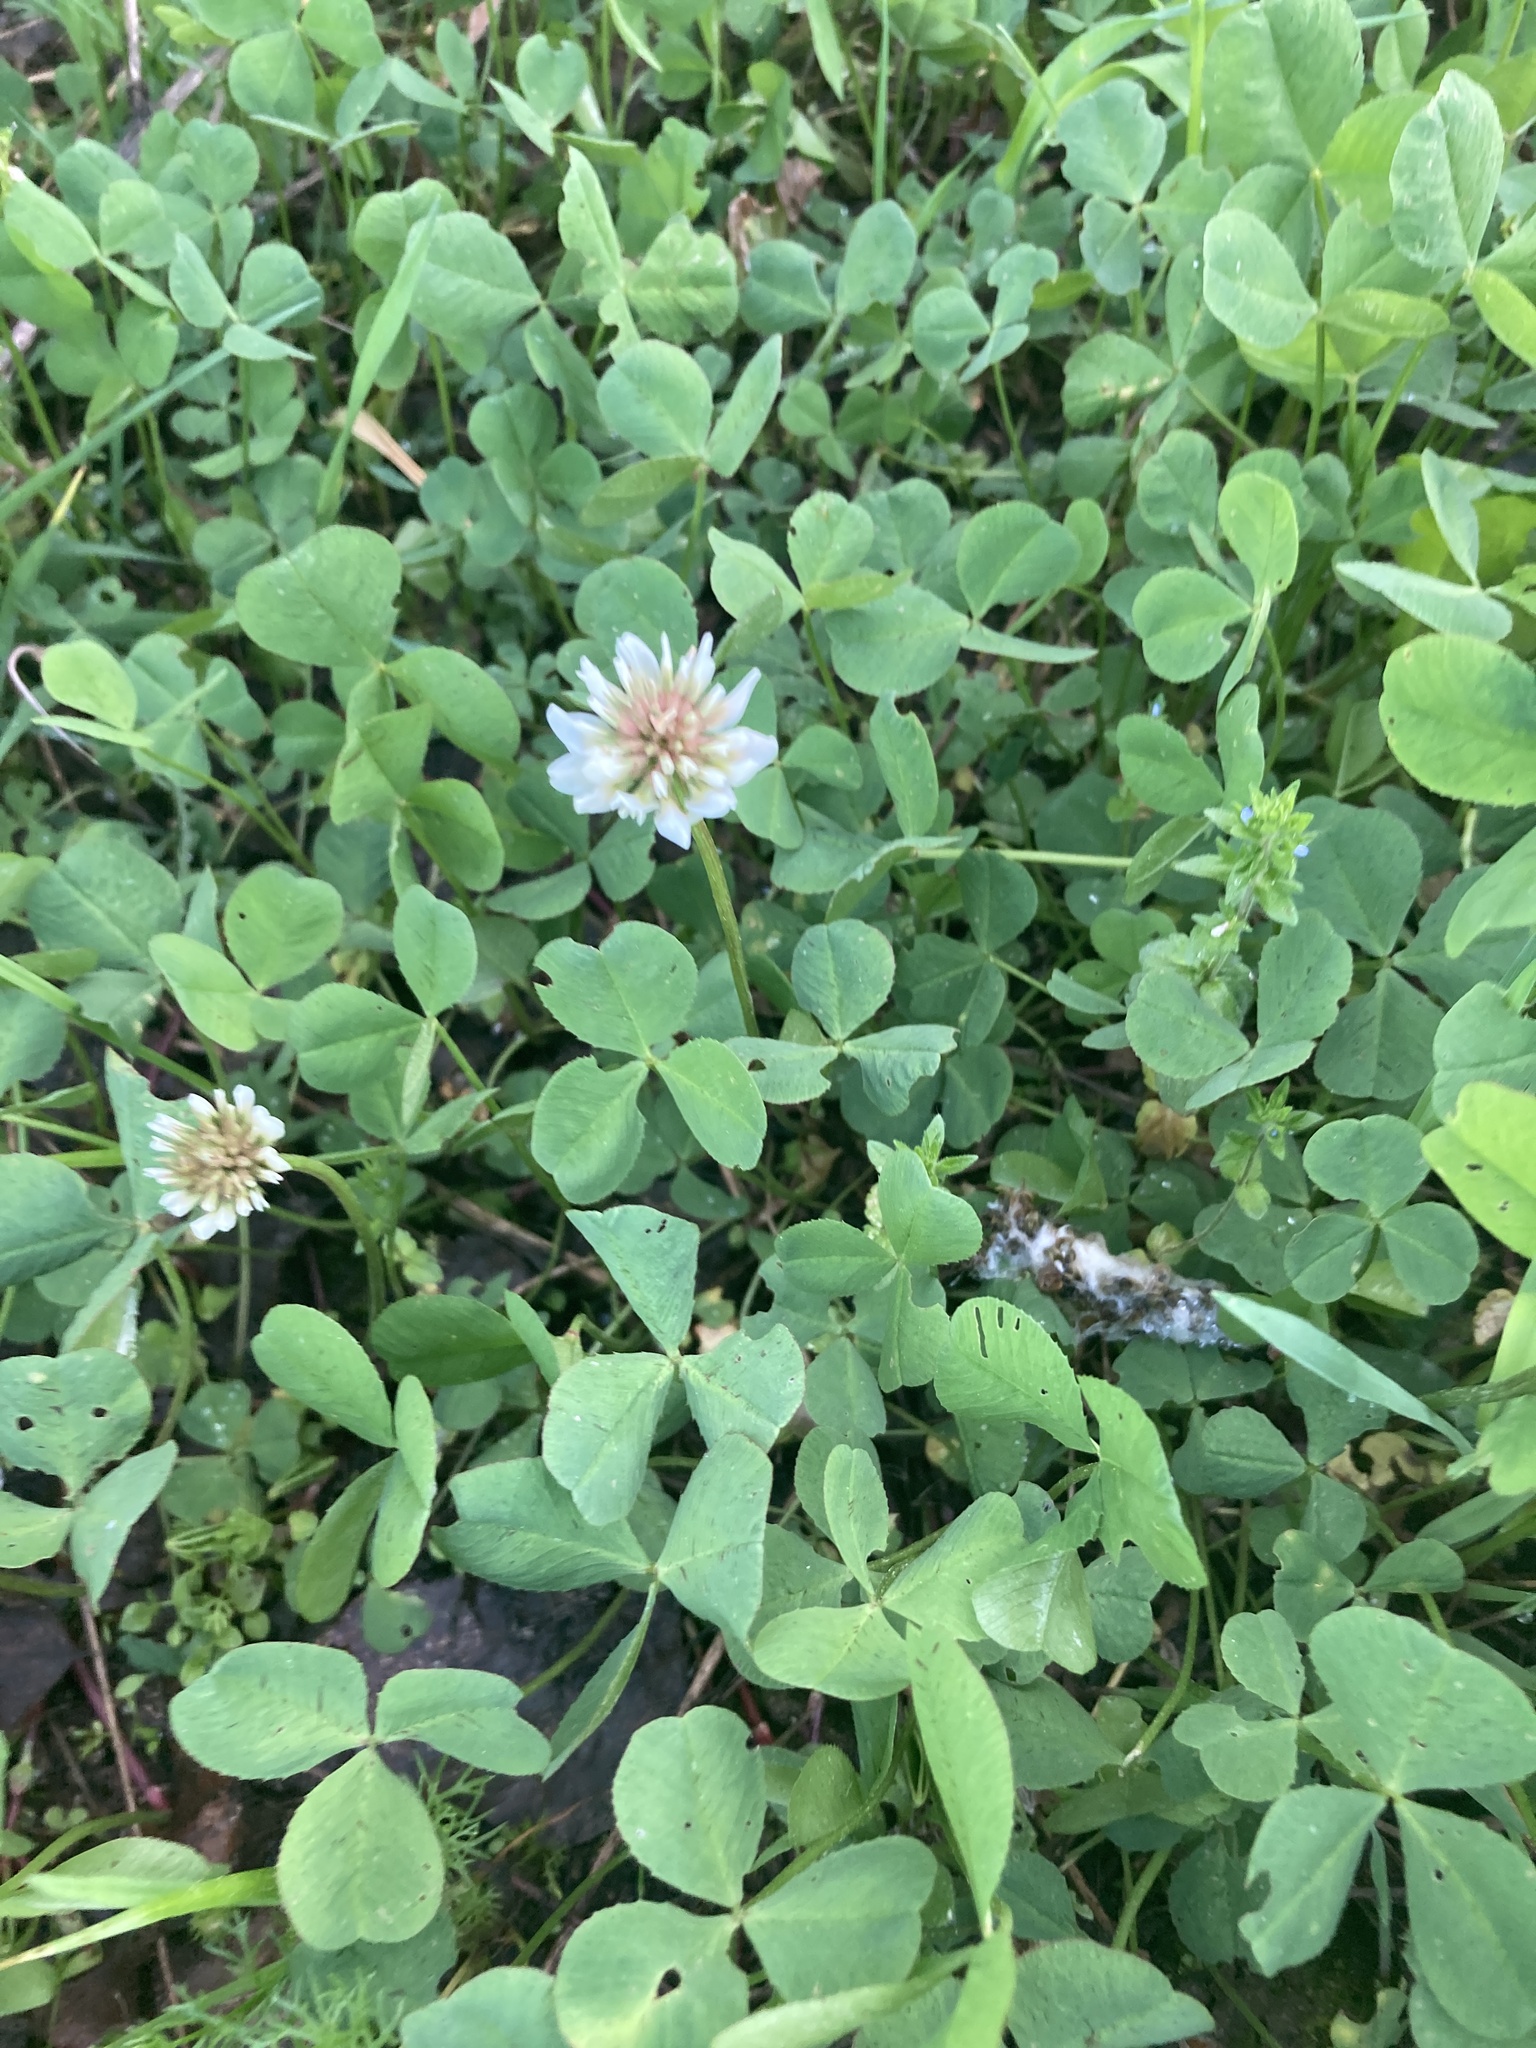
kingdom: Plantae
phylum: Tracheophyta
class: Magnoliopsida
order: Fabales
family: Fabaceae
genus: Trifolium
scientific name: Trifolium repens
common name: White clover
